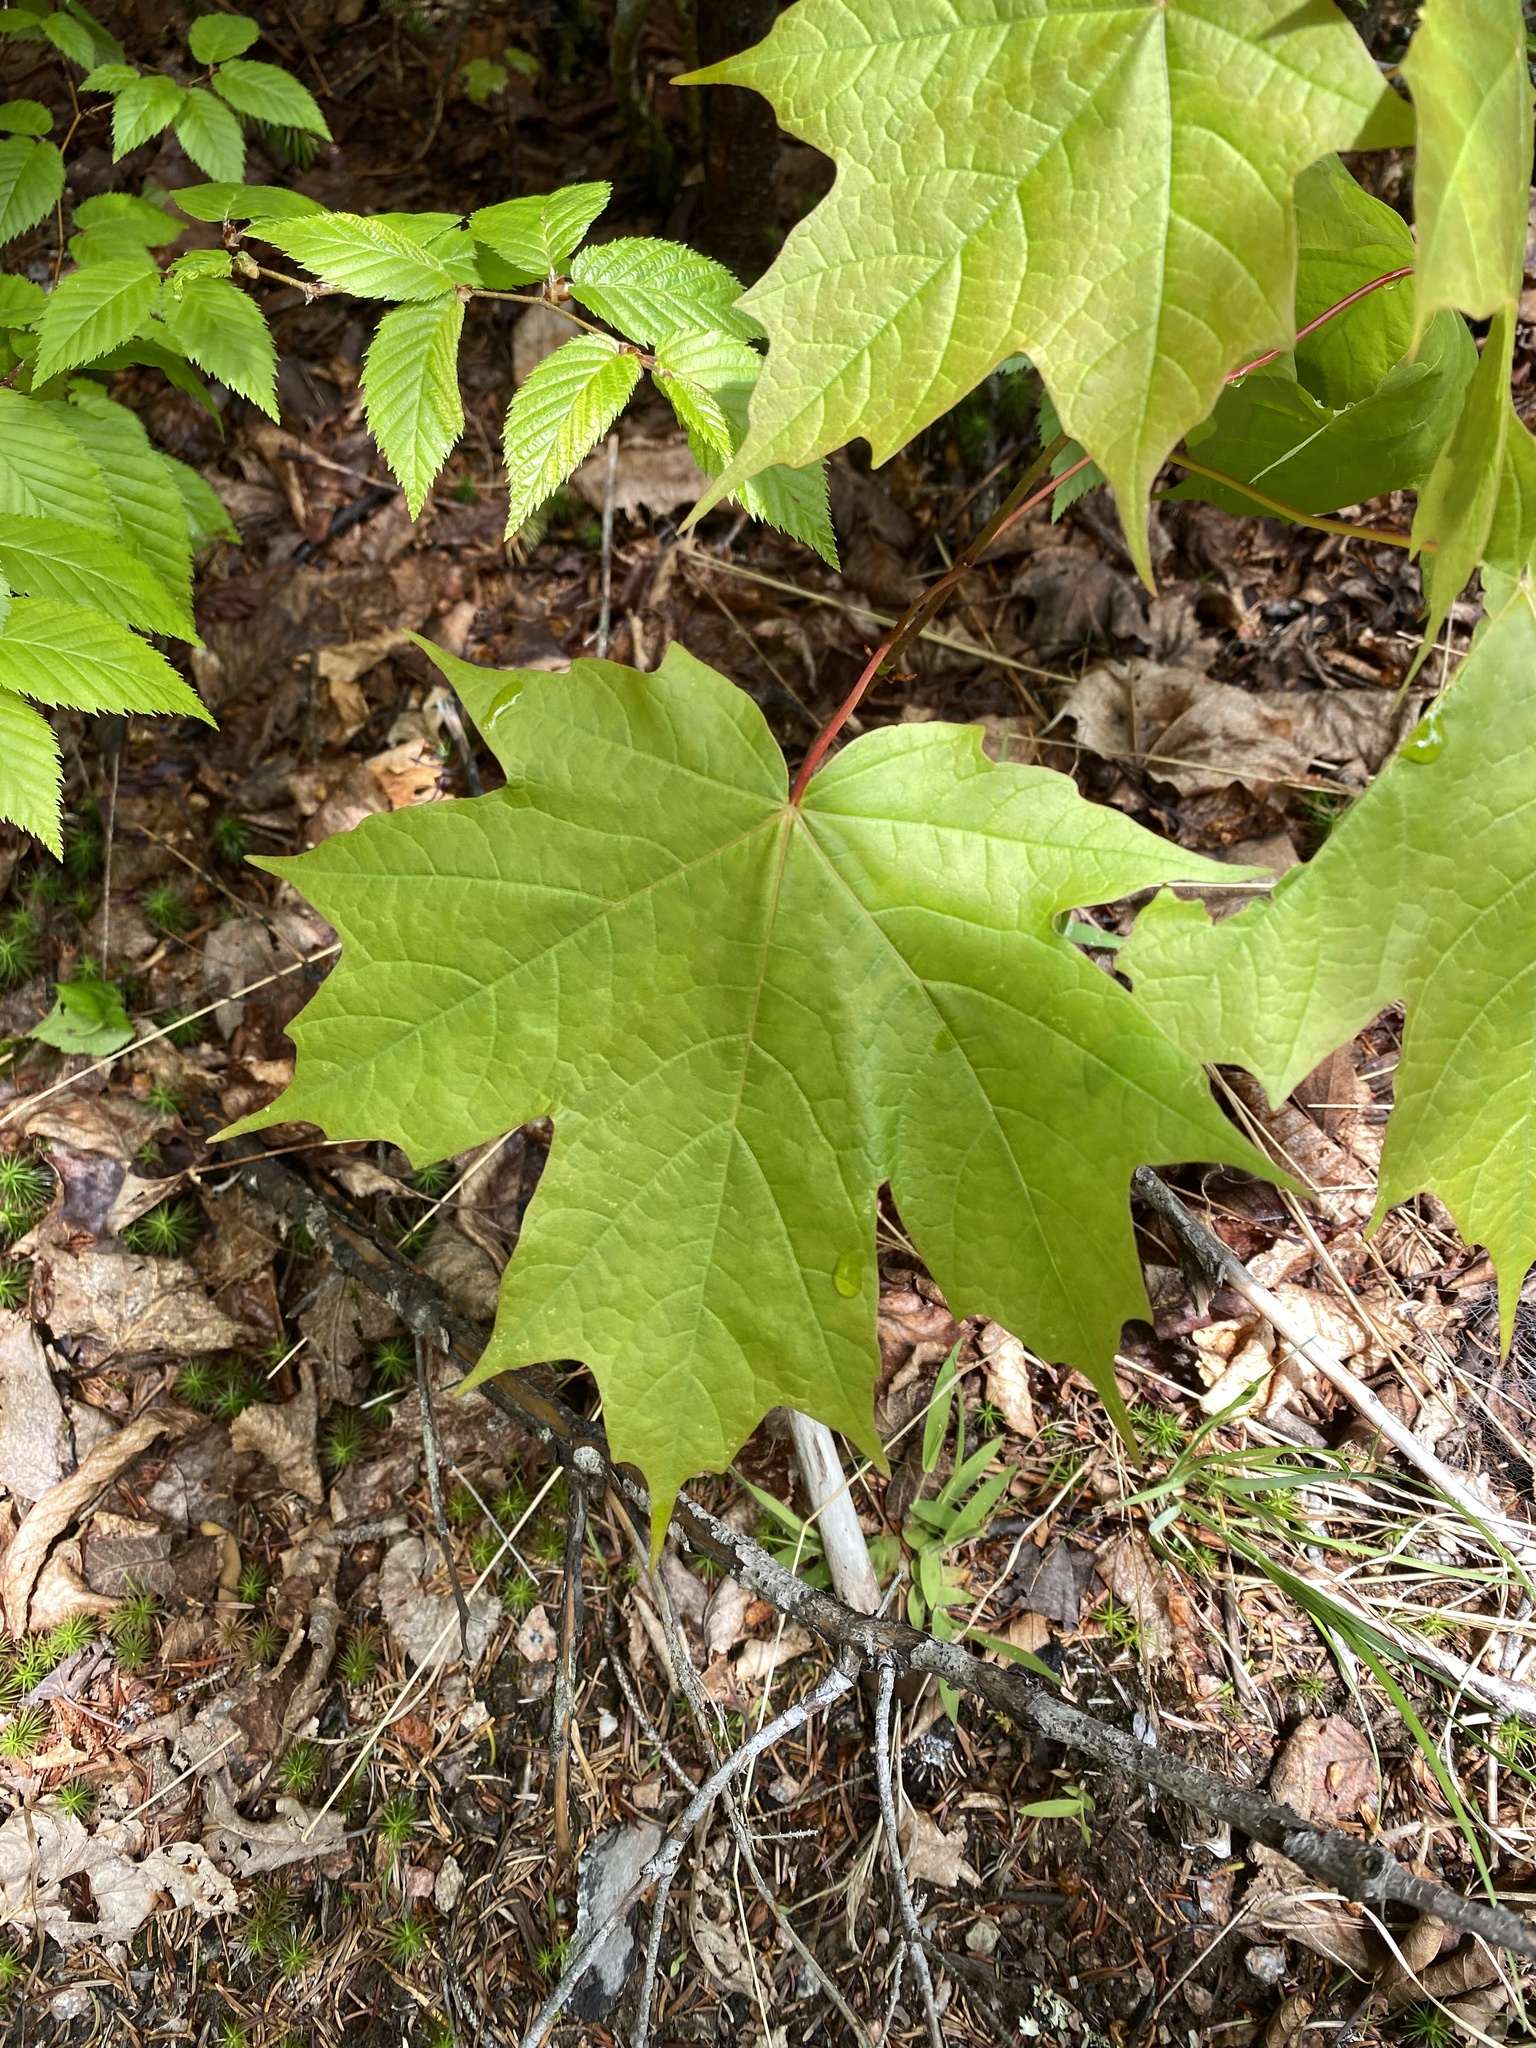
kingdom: Plantae
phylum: Tracheophyta
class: Magnoliopsida
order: Sapindales
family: Sapindaceae
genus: Acer
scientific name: Acer saccharum
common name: Sugar maple
